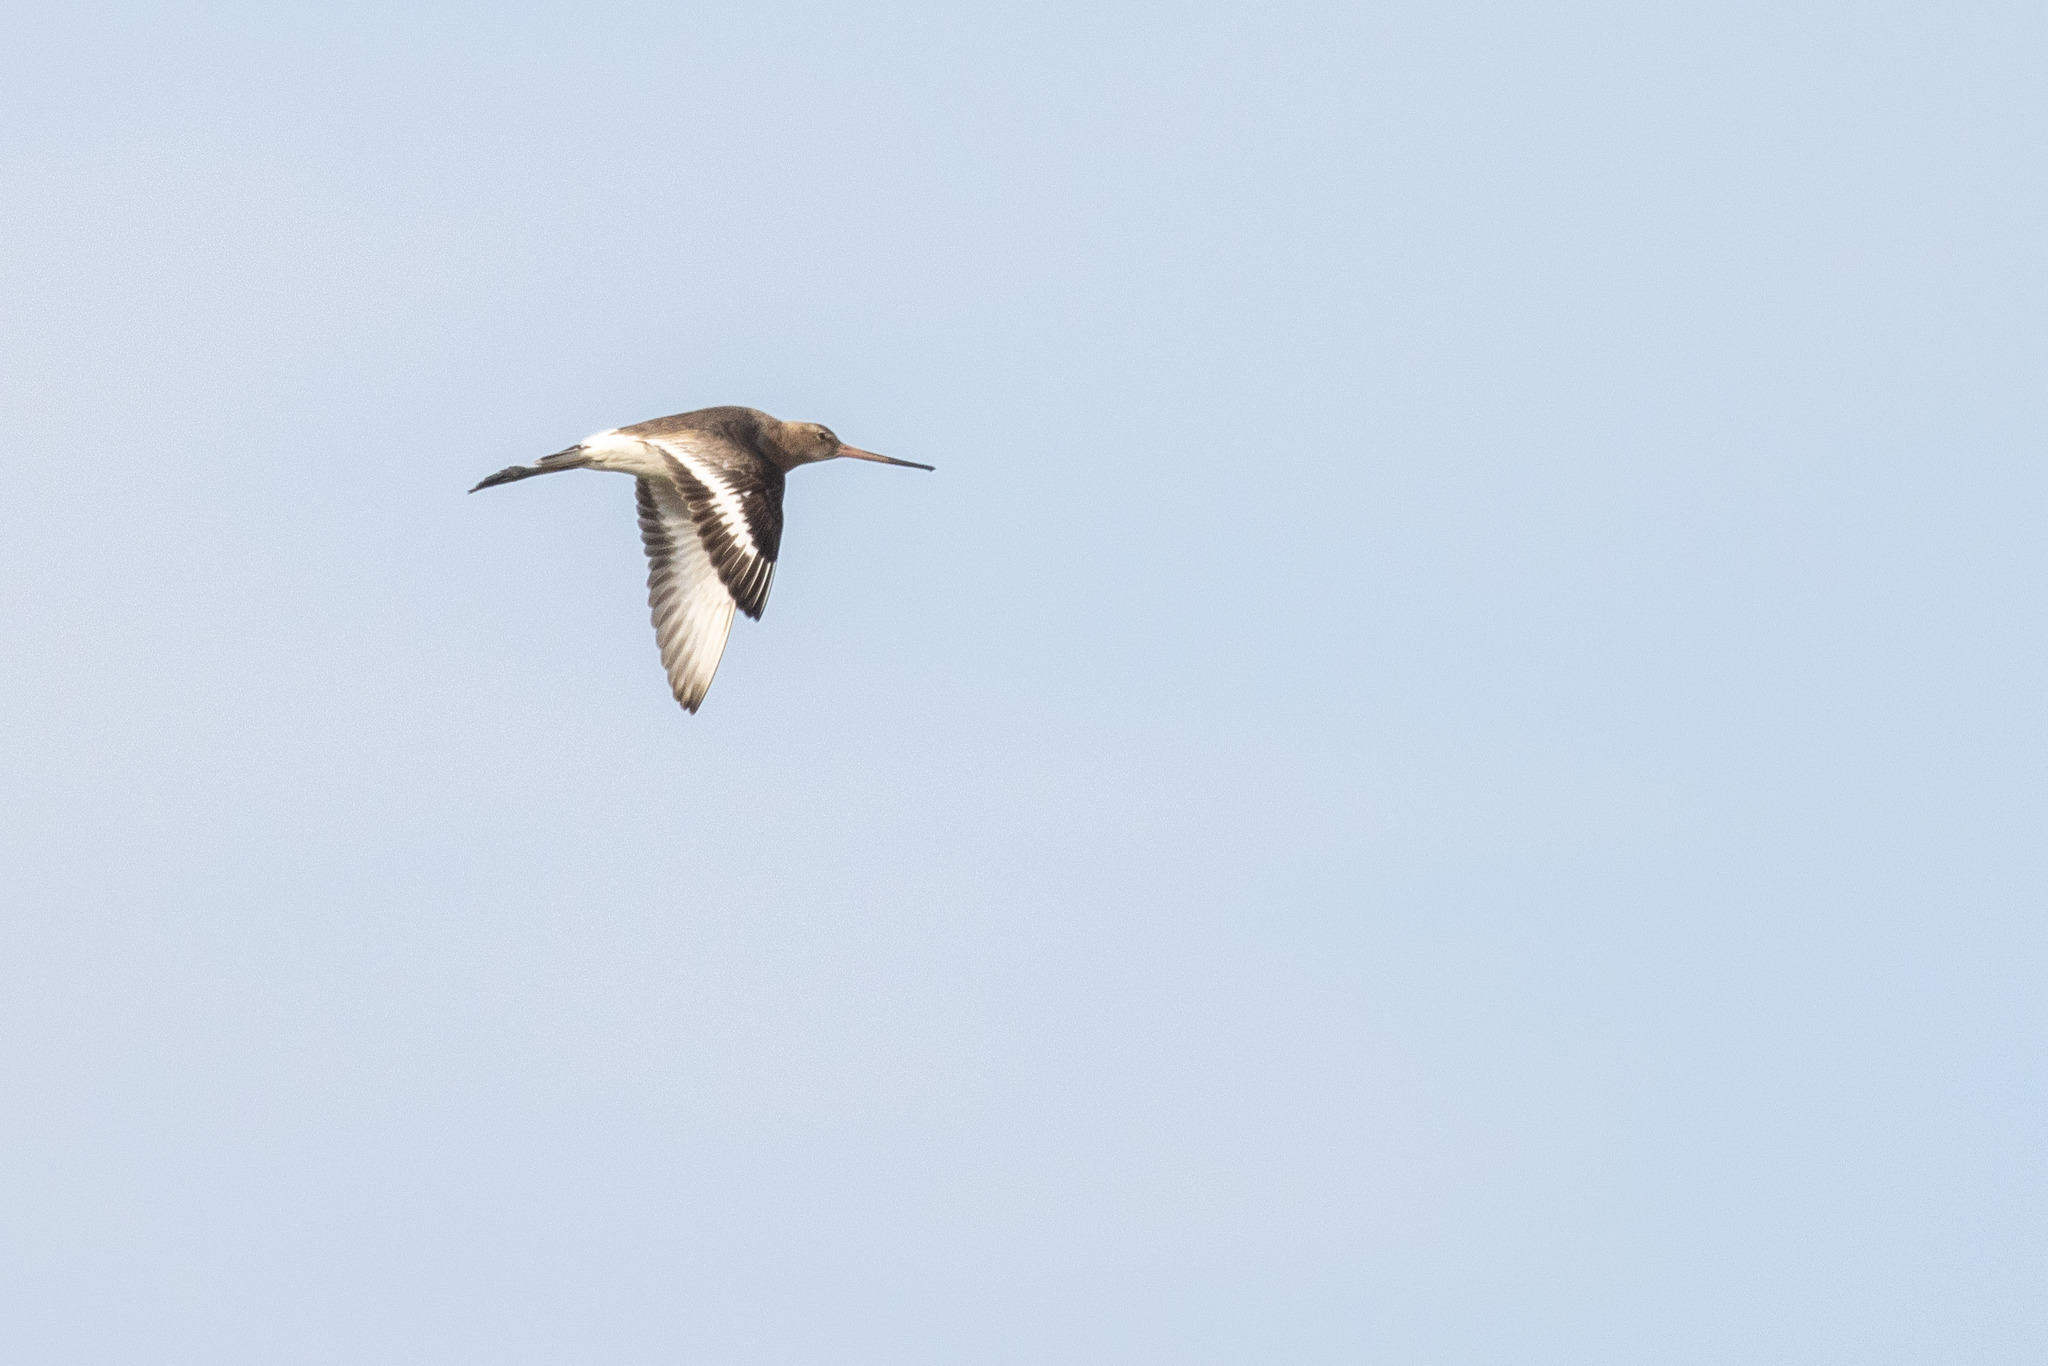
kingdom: Animalia
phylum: Chordata
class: Aves
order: Charadriiformes
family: Scolopacidae
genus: Limosa
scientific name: Limosa limosa
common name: Black-tailed godwit
